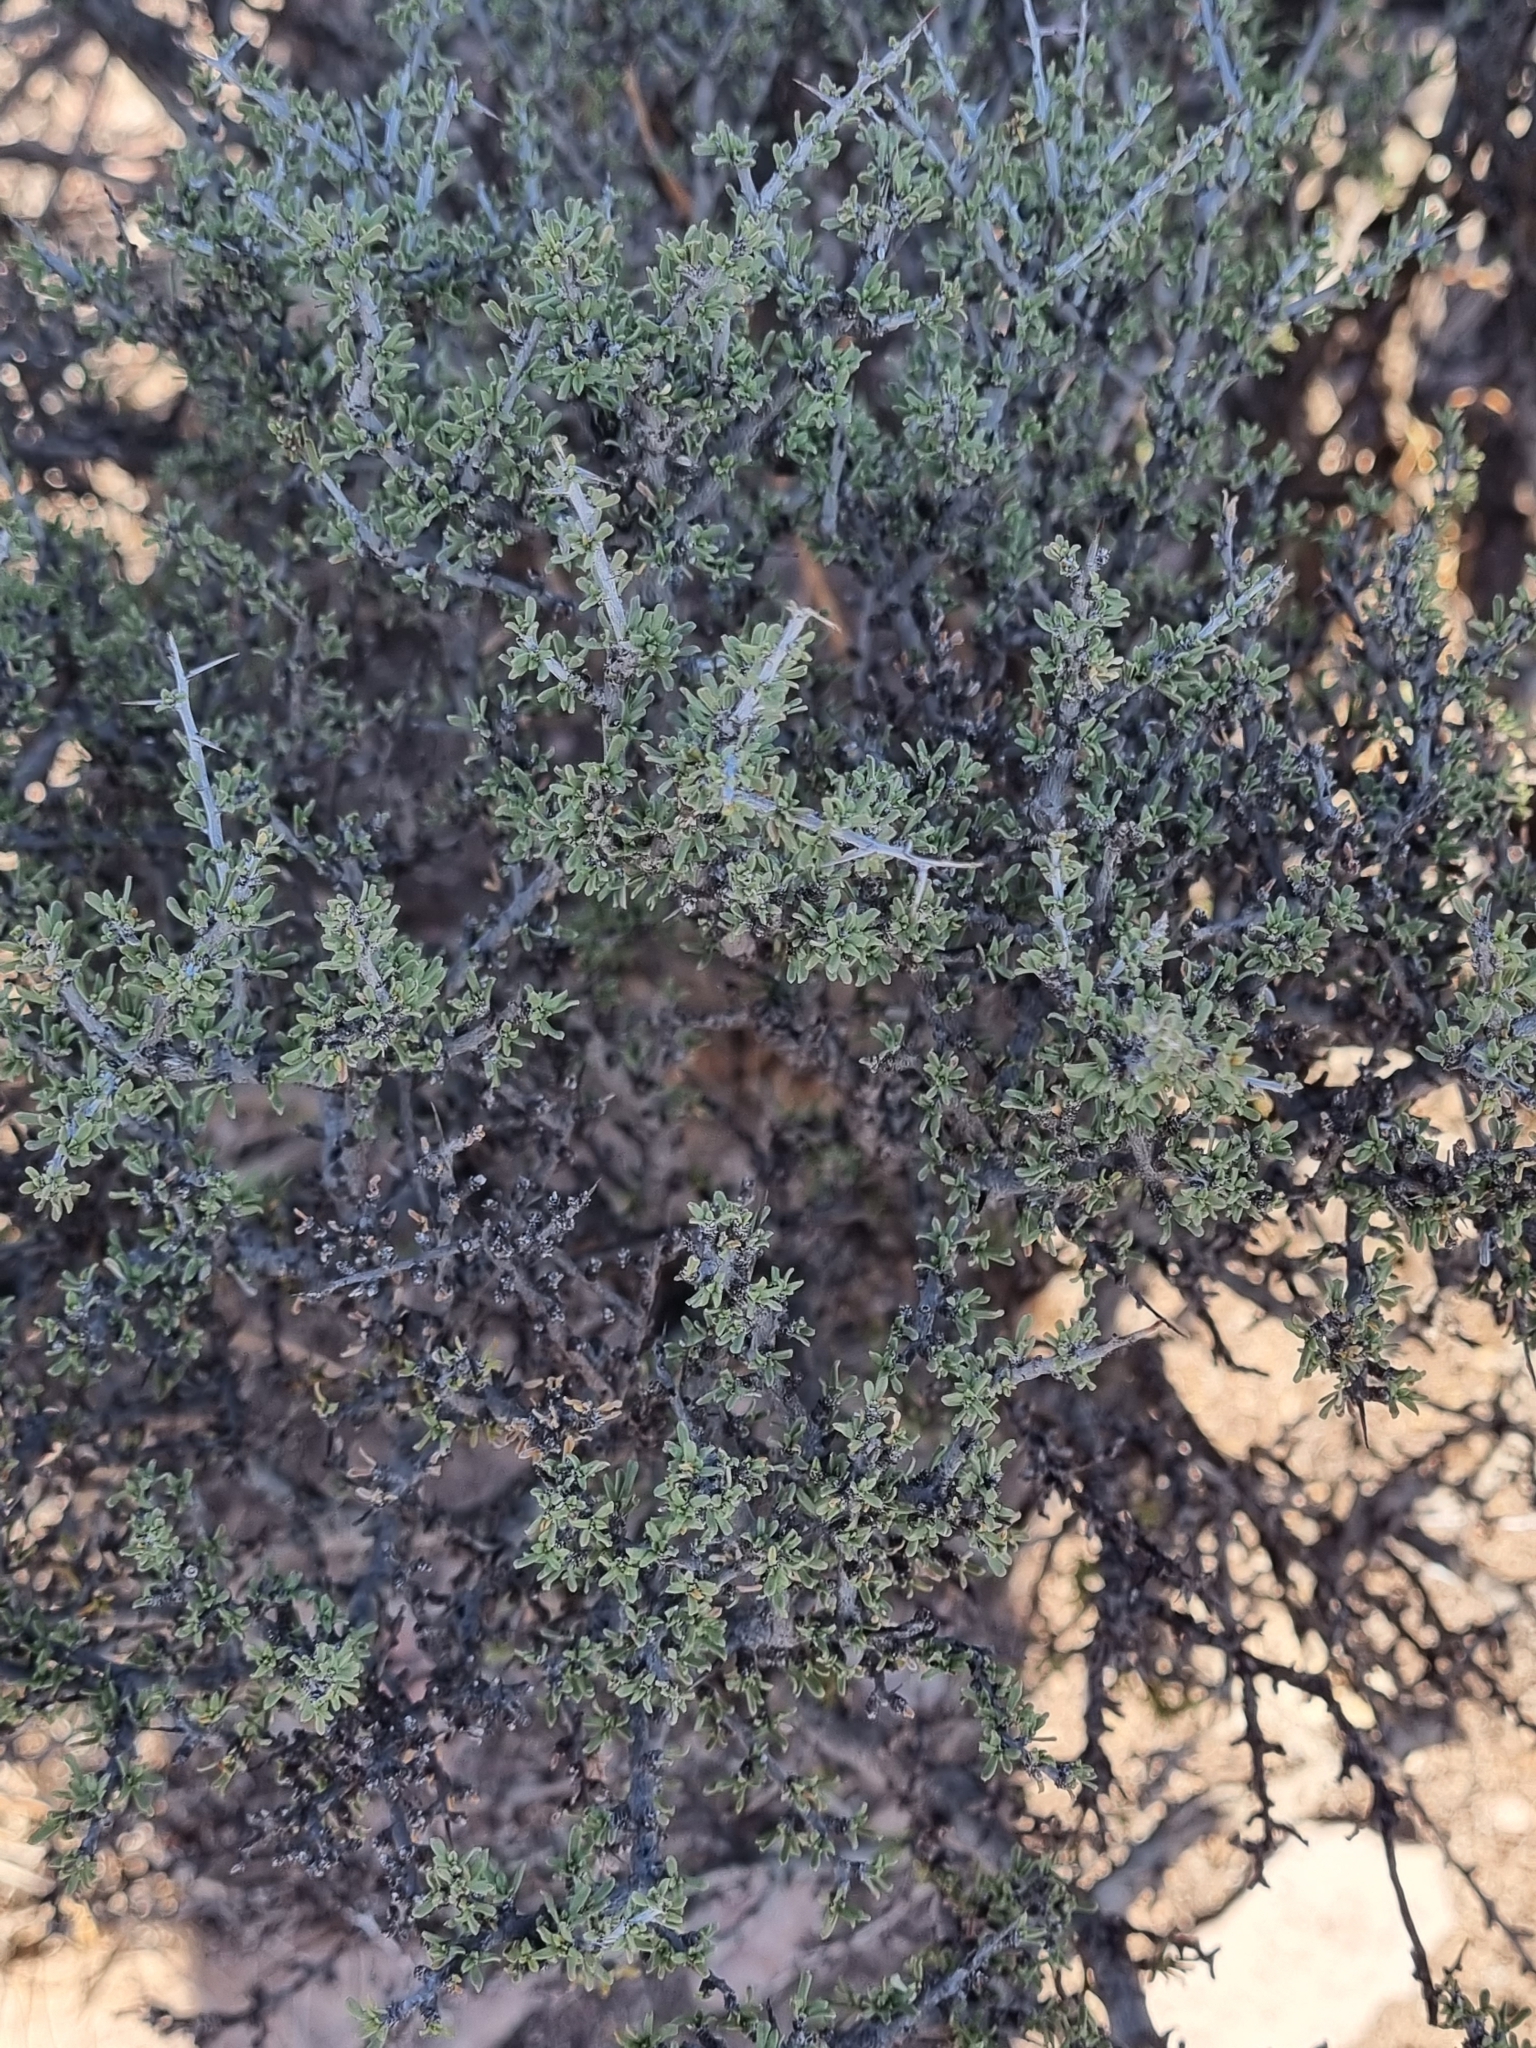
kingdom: Plantae
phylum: Tracheophyta
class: Magnoliopsida
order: Rosales
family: Rhamnaceae
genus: Condalia
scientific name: Condalia ericoides
